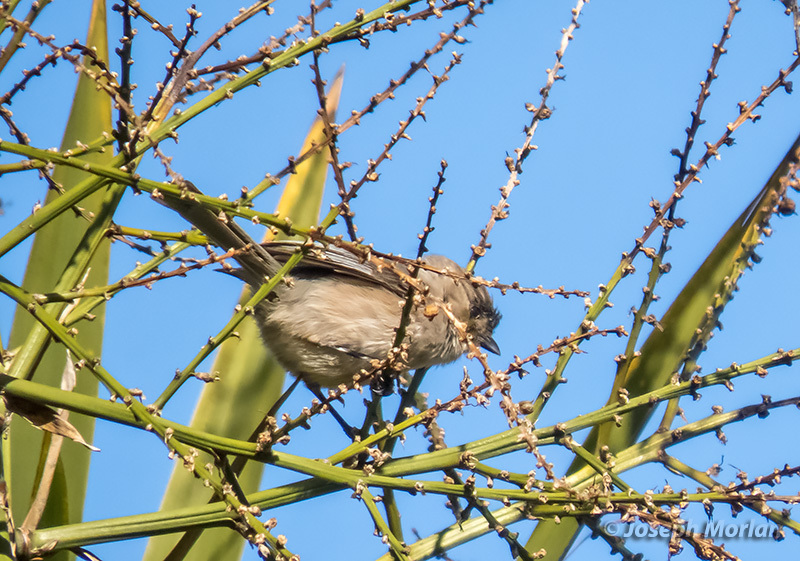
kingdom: Animalia
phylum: Chordata
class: Aves
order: Passeriformes
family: Aegithalidae
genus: Psaltriparus
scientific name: Psaltriparus minimus
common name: American bushtit
